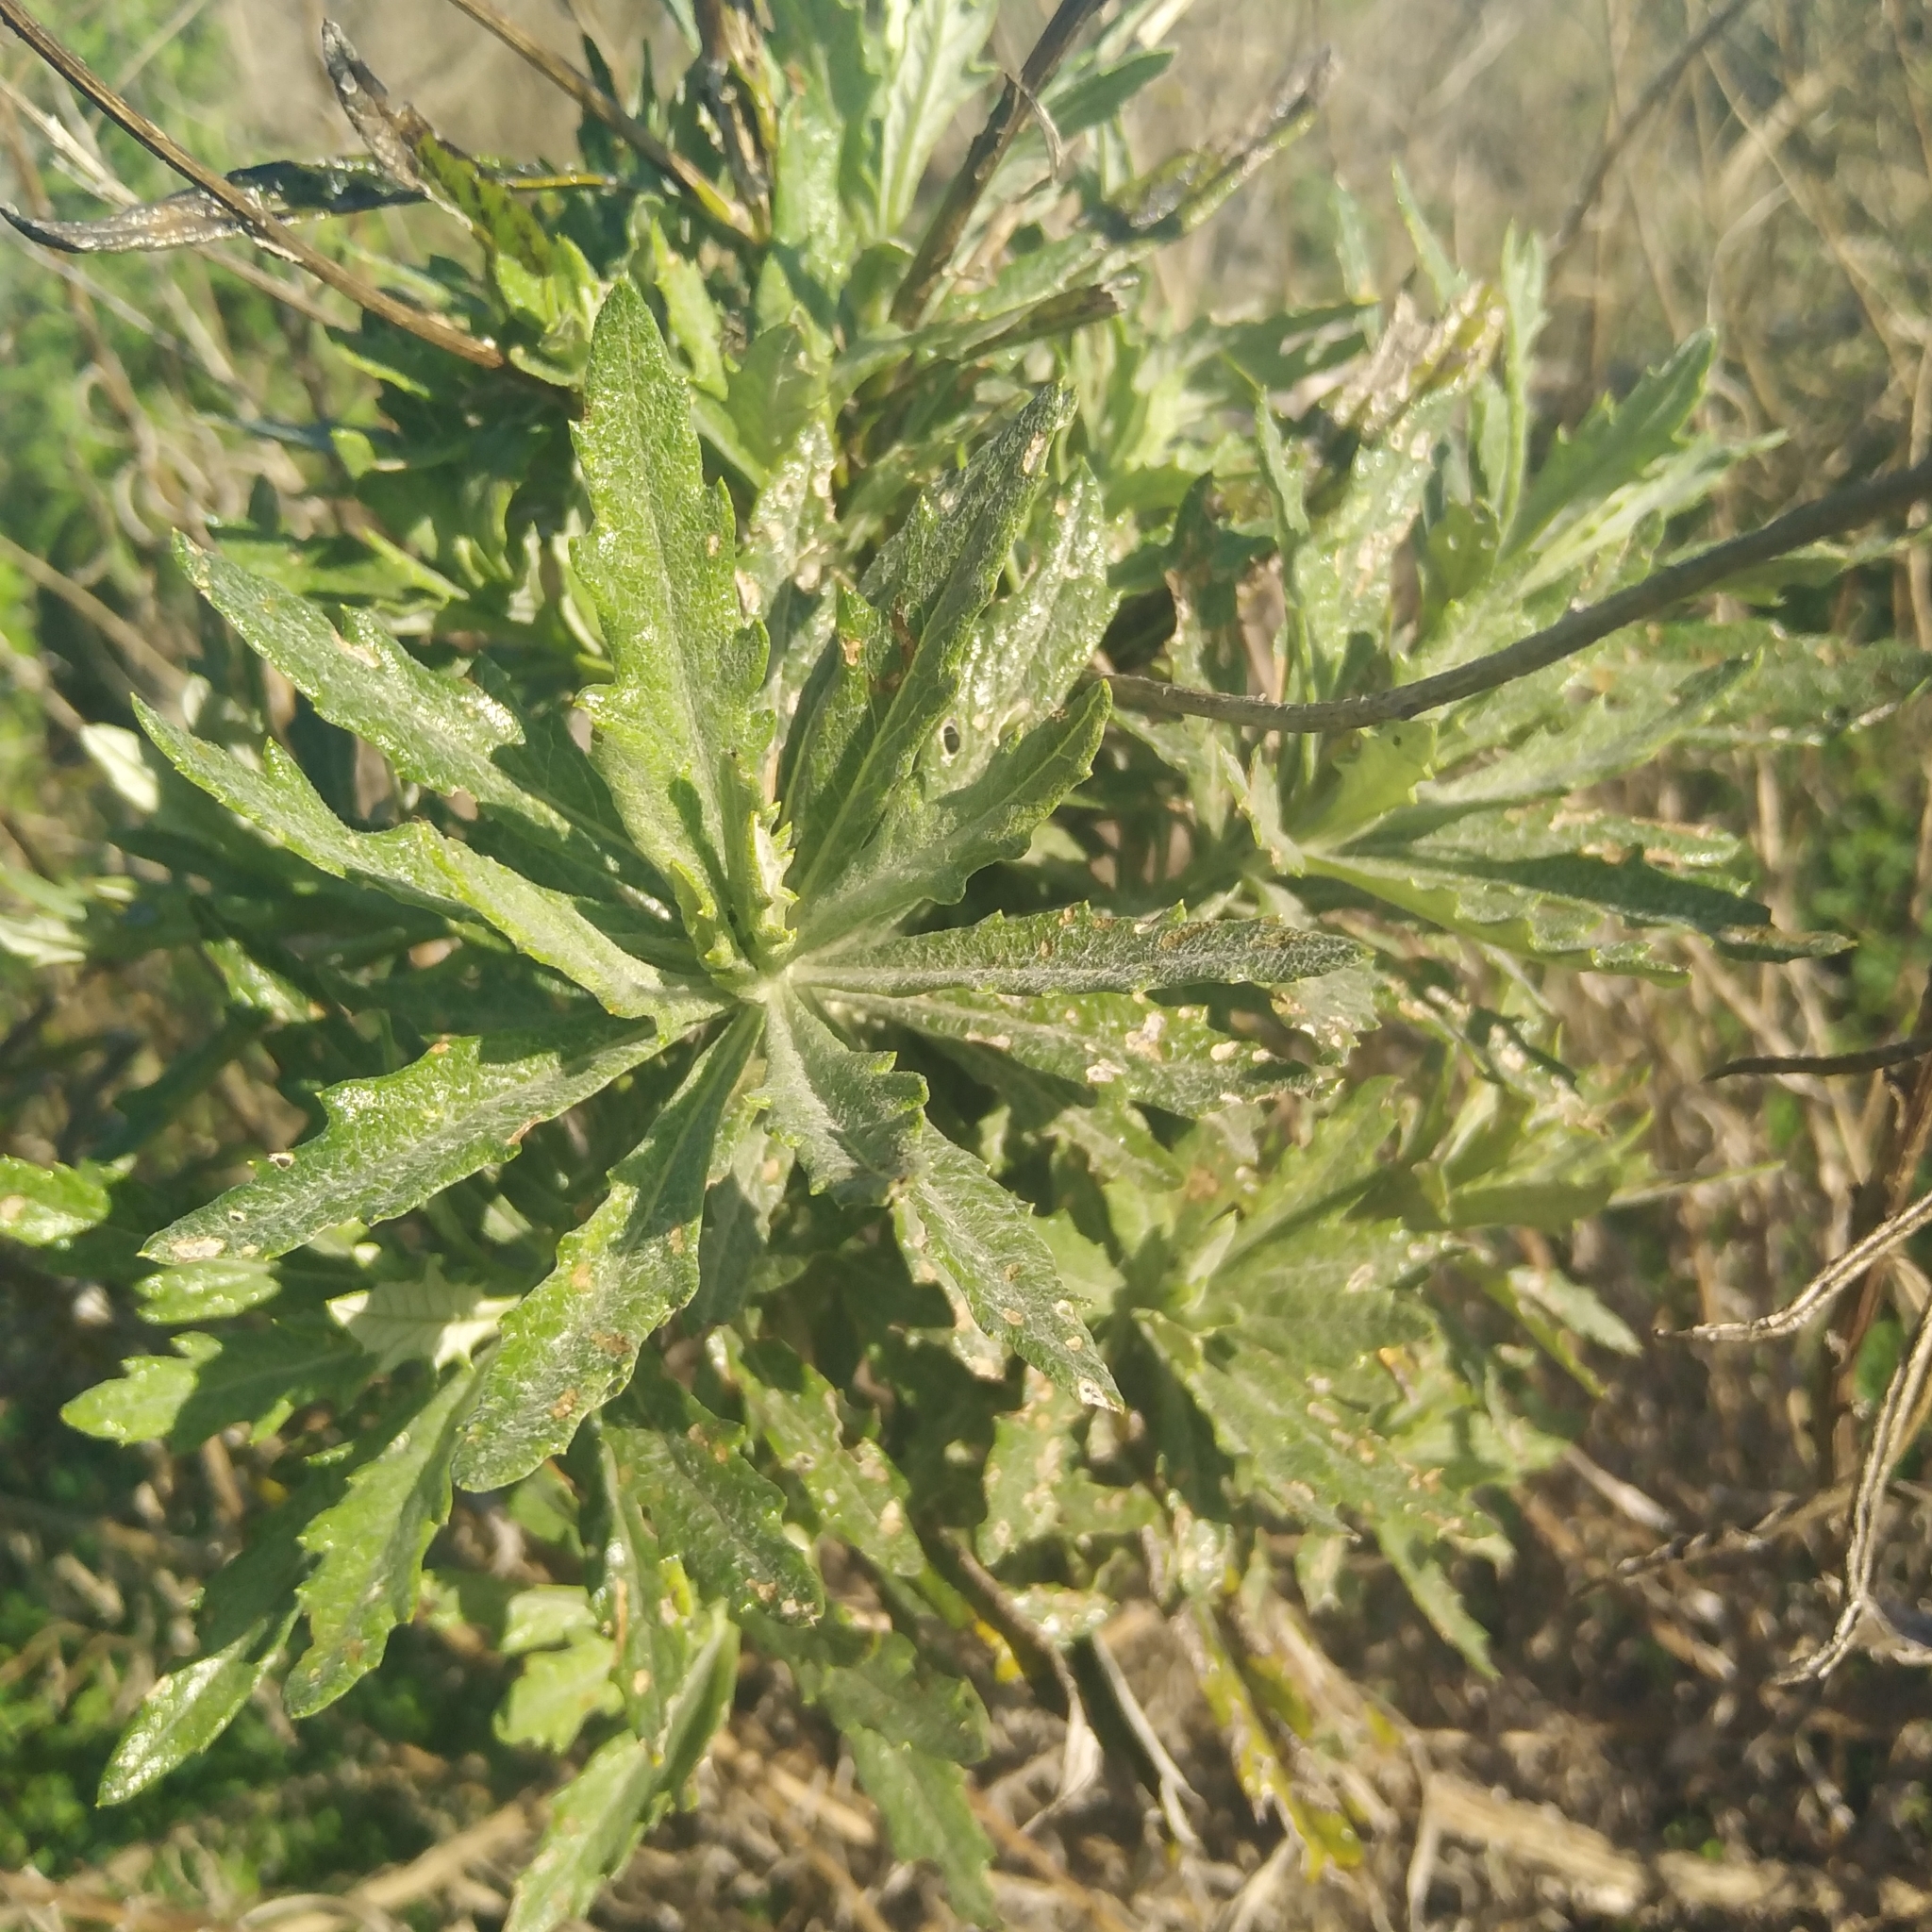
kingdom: Plantae
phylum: Tracheophyta
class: Magnoliopsida
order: Asterales
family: Asteraceae
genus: Senecio
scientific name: Senecio pterophorus
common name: Shoddy ragwort
